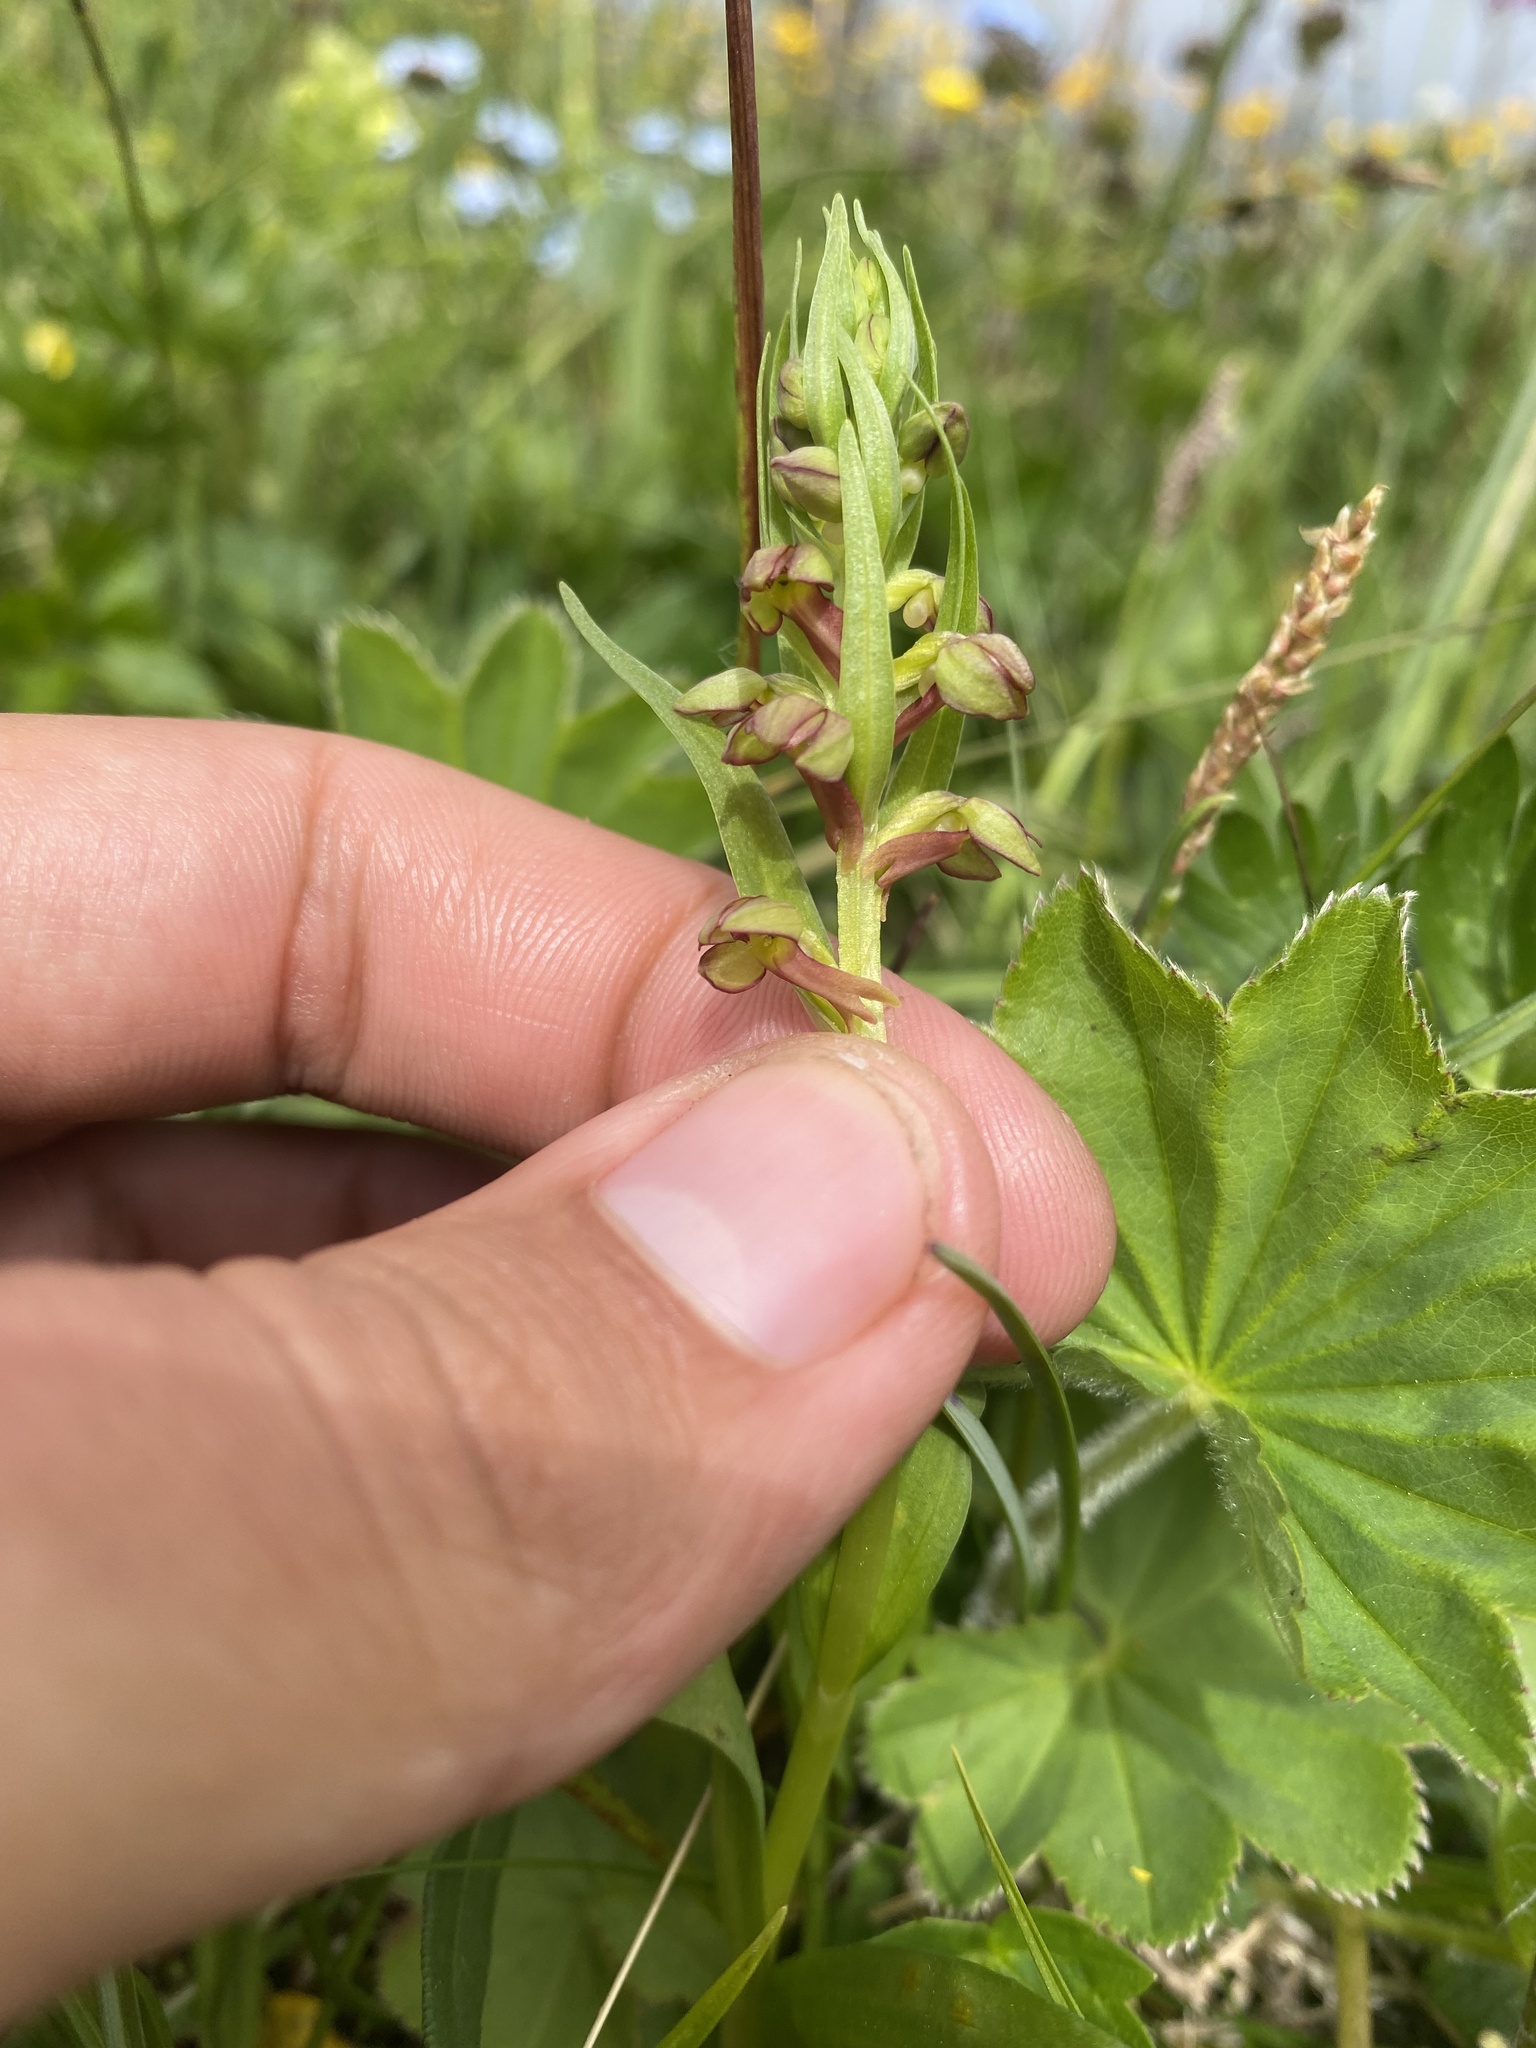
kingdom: Plantae
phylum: Tracheophyta
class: Liliopsida
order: Asparagales
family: Orchidaceae
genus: Dactylorhiza
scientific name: Dactylorhiza viridis
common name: Longbract frog orchid
